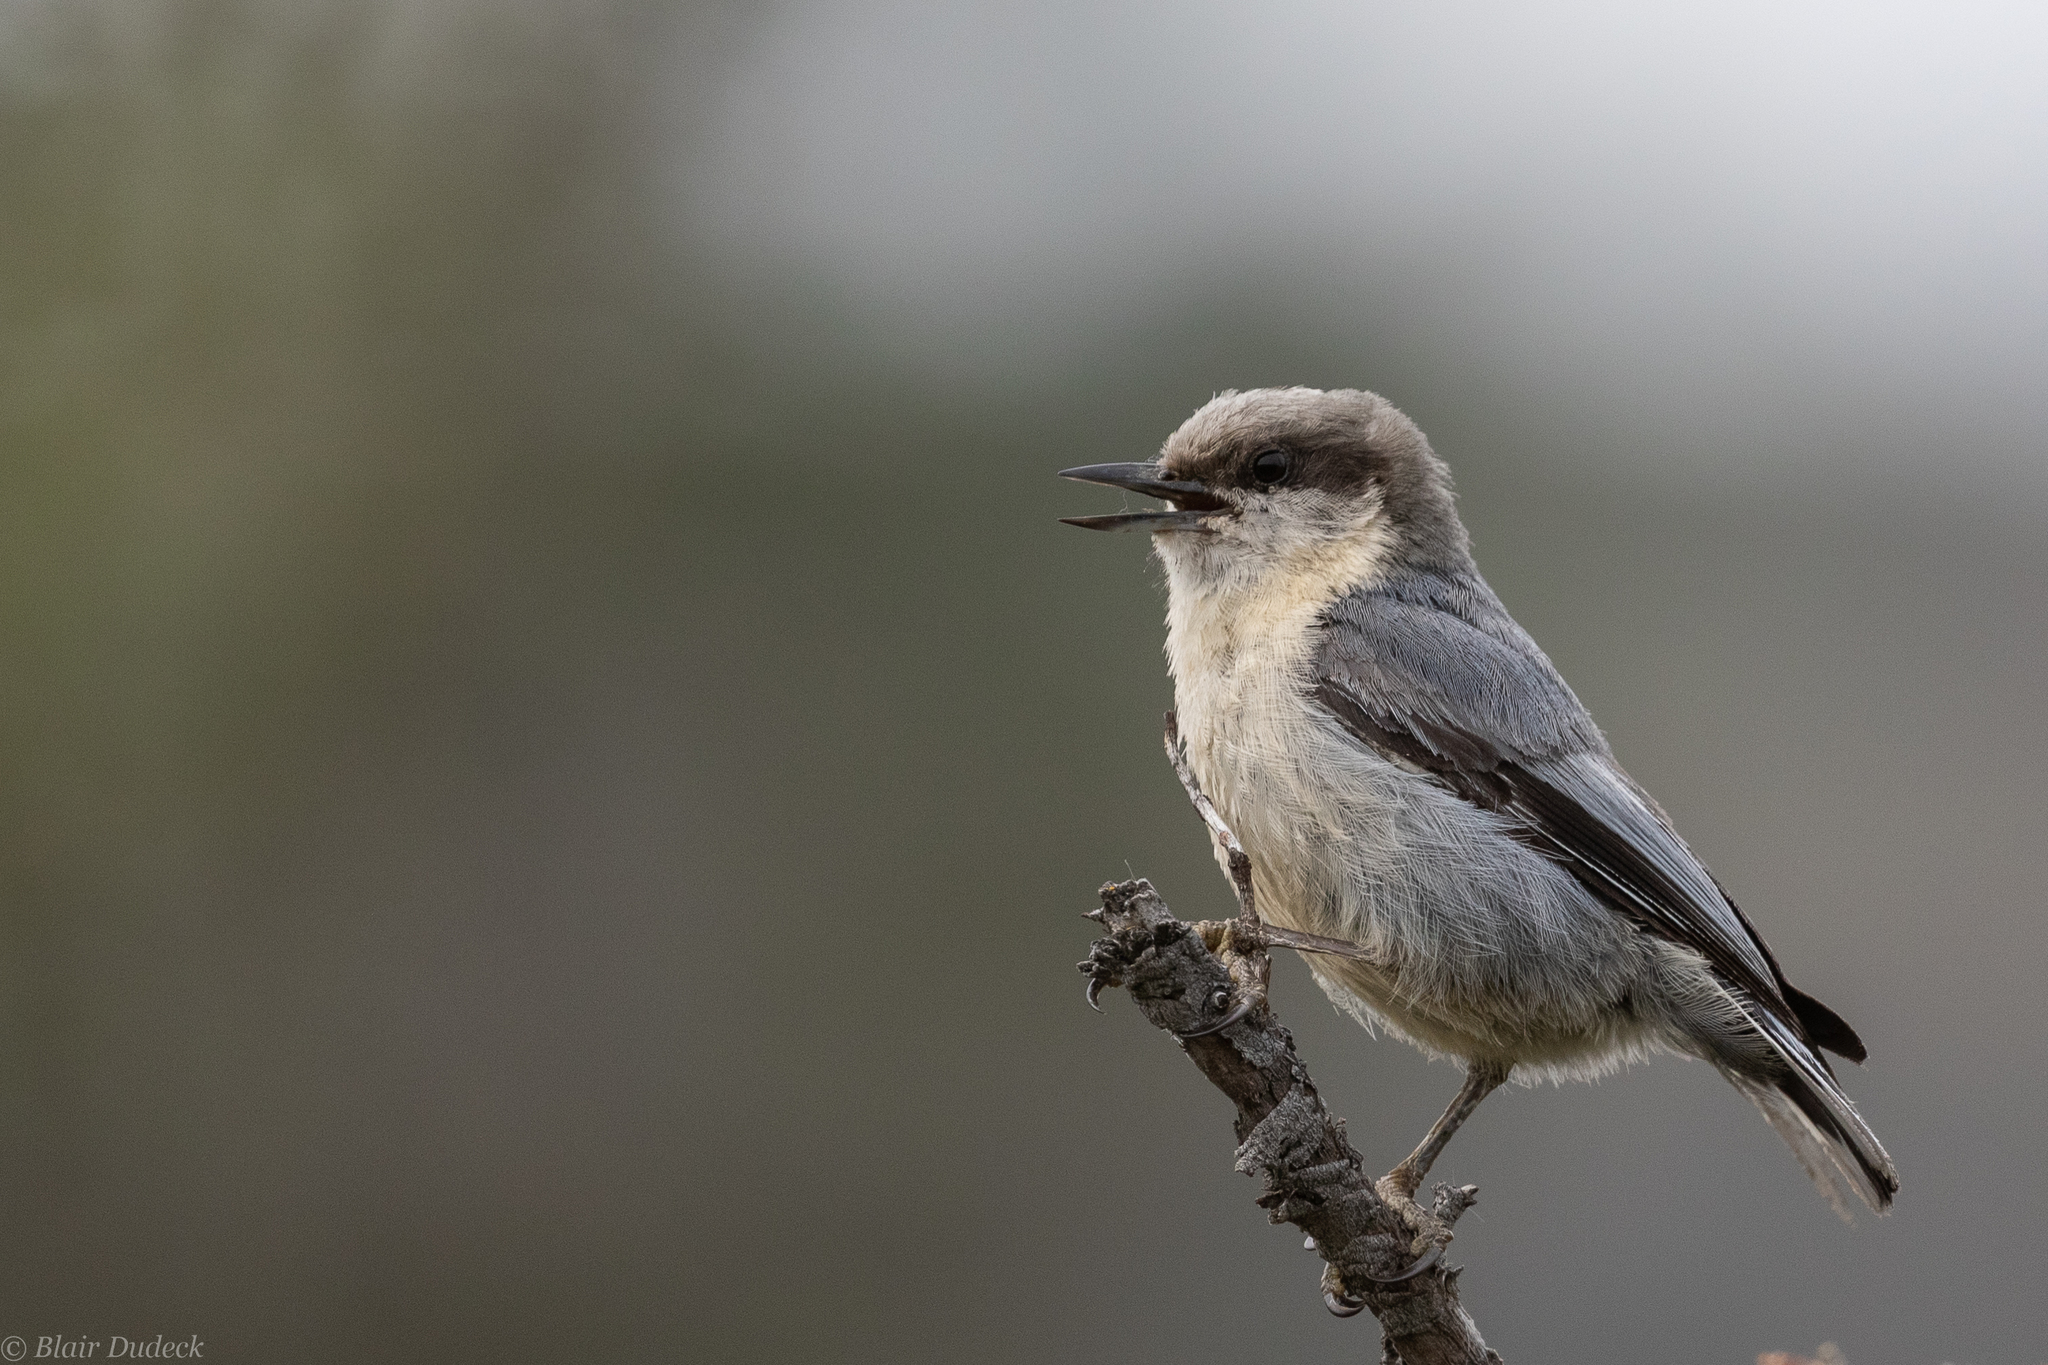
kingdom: Animalia
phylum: Chordata
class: Aves
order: Passeriformes
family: Sittidae
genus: Sitta
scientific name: Sitta pygmaea
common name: Pygmy nuthatch
